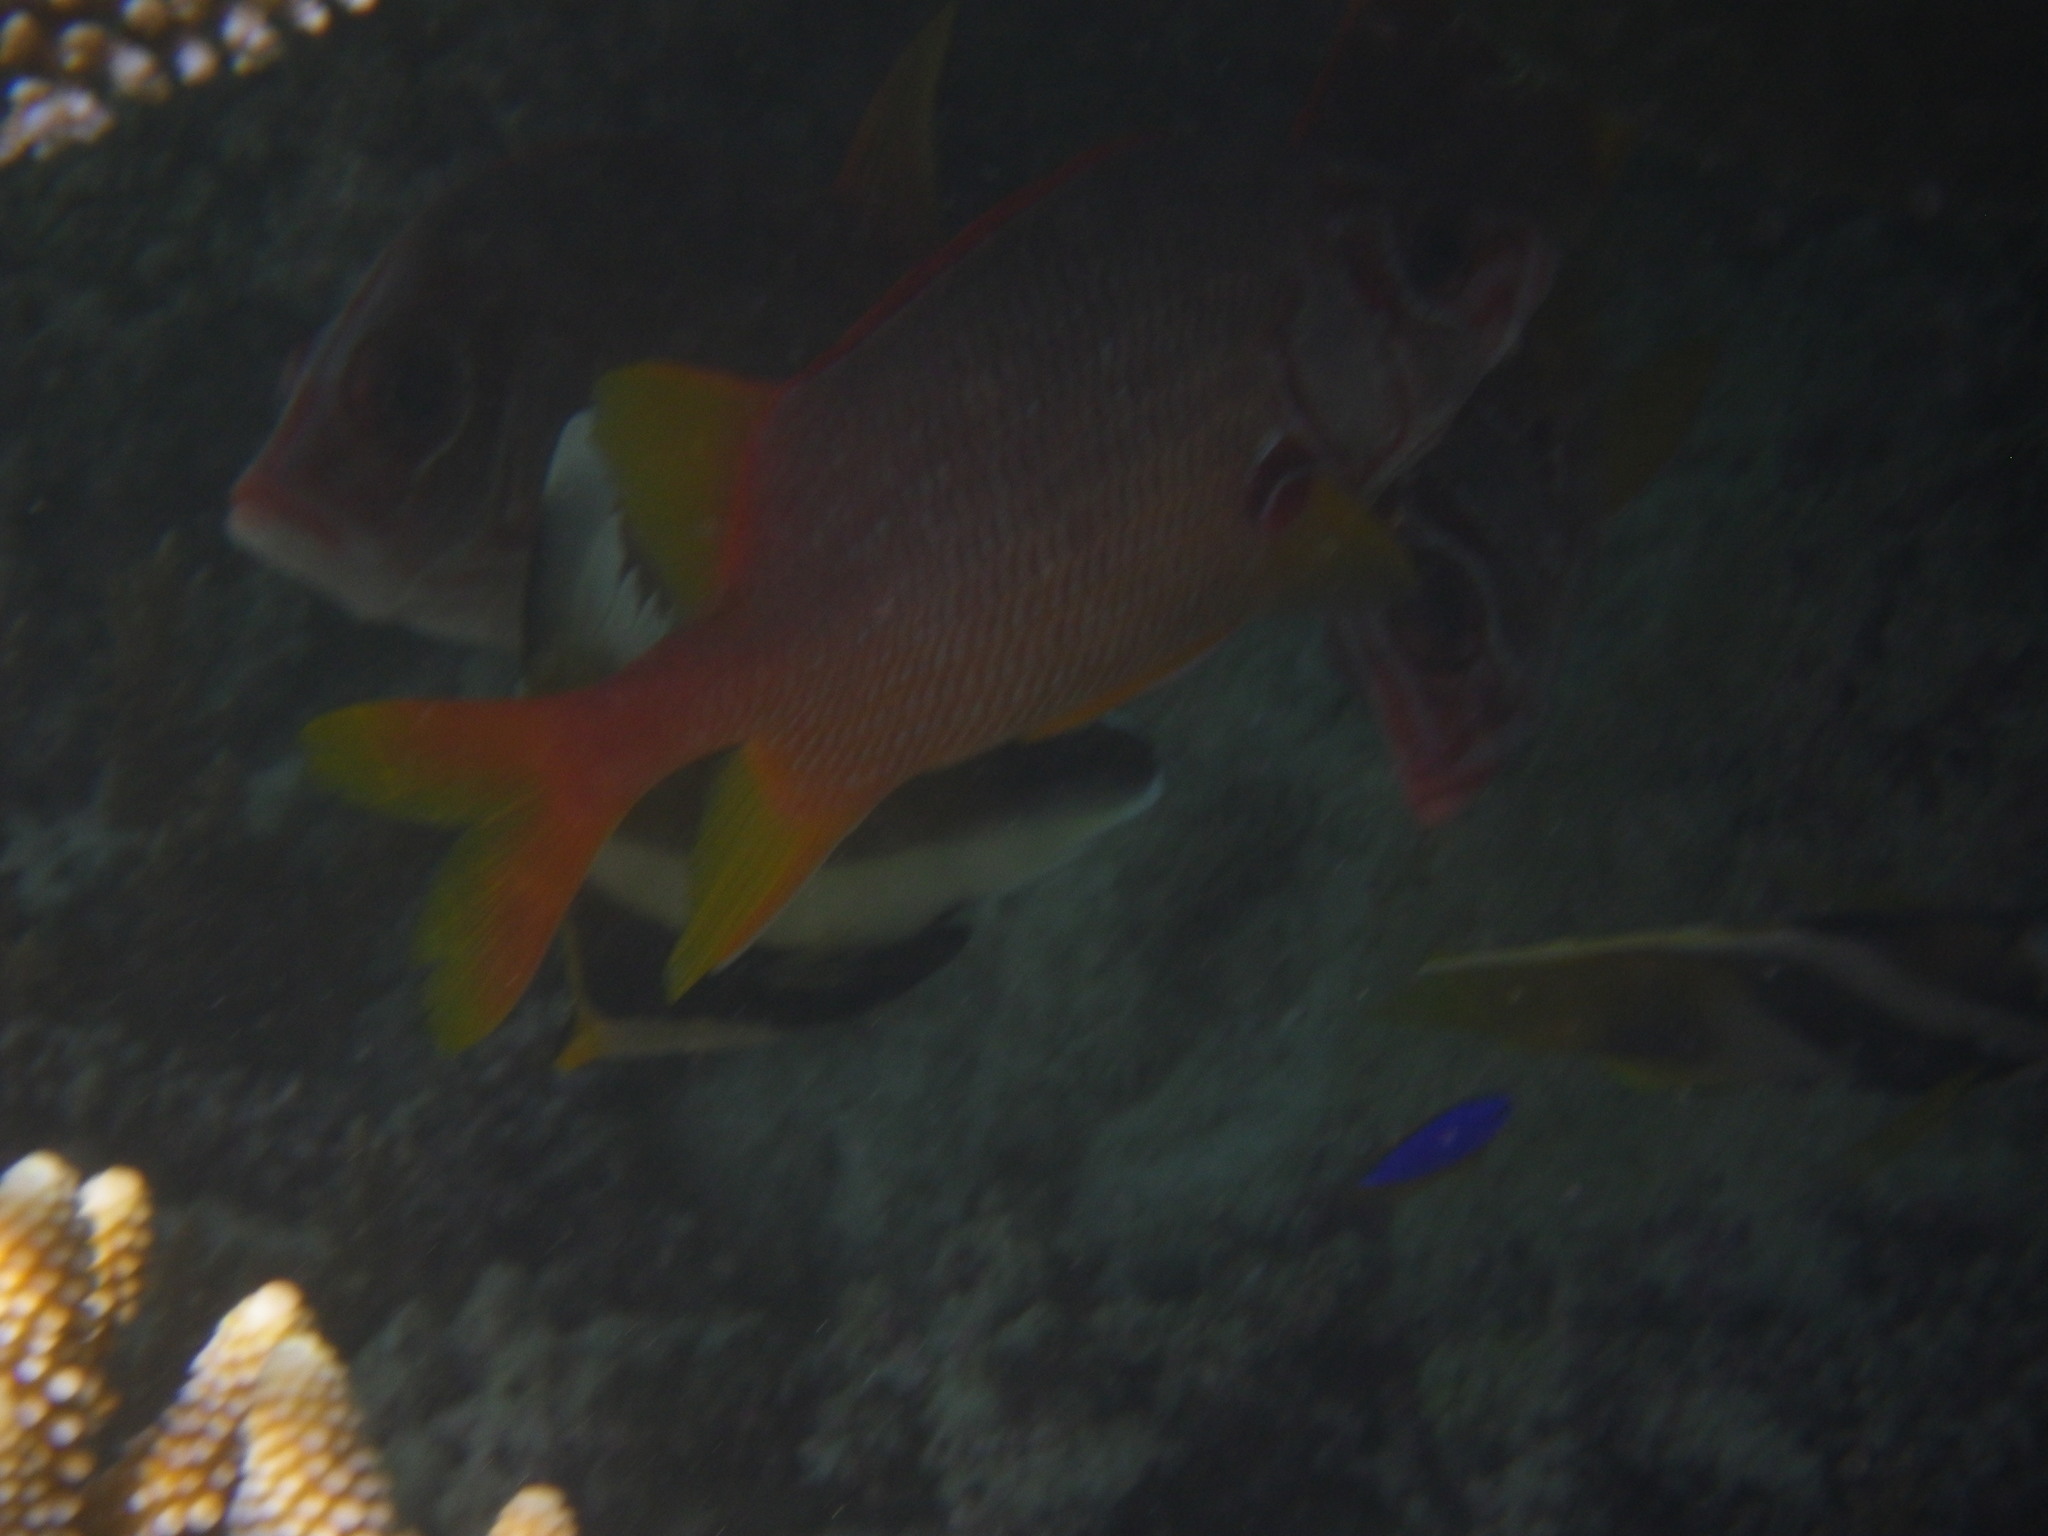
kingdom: Animalia
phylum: Chordata
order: Beryciformes
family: Holocentridae
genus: Sargocentron
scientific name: Sargocentron spiniferum
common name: Giant squirrelfish
